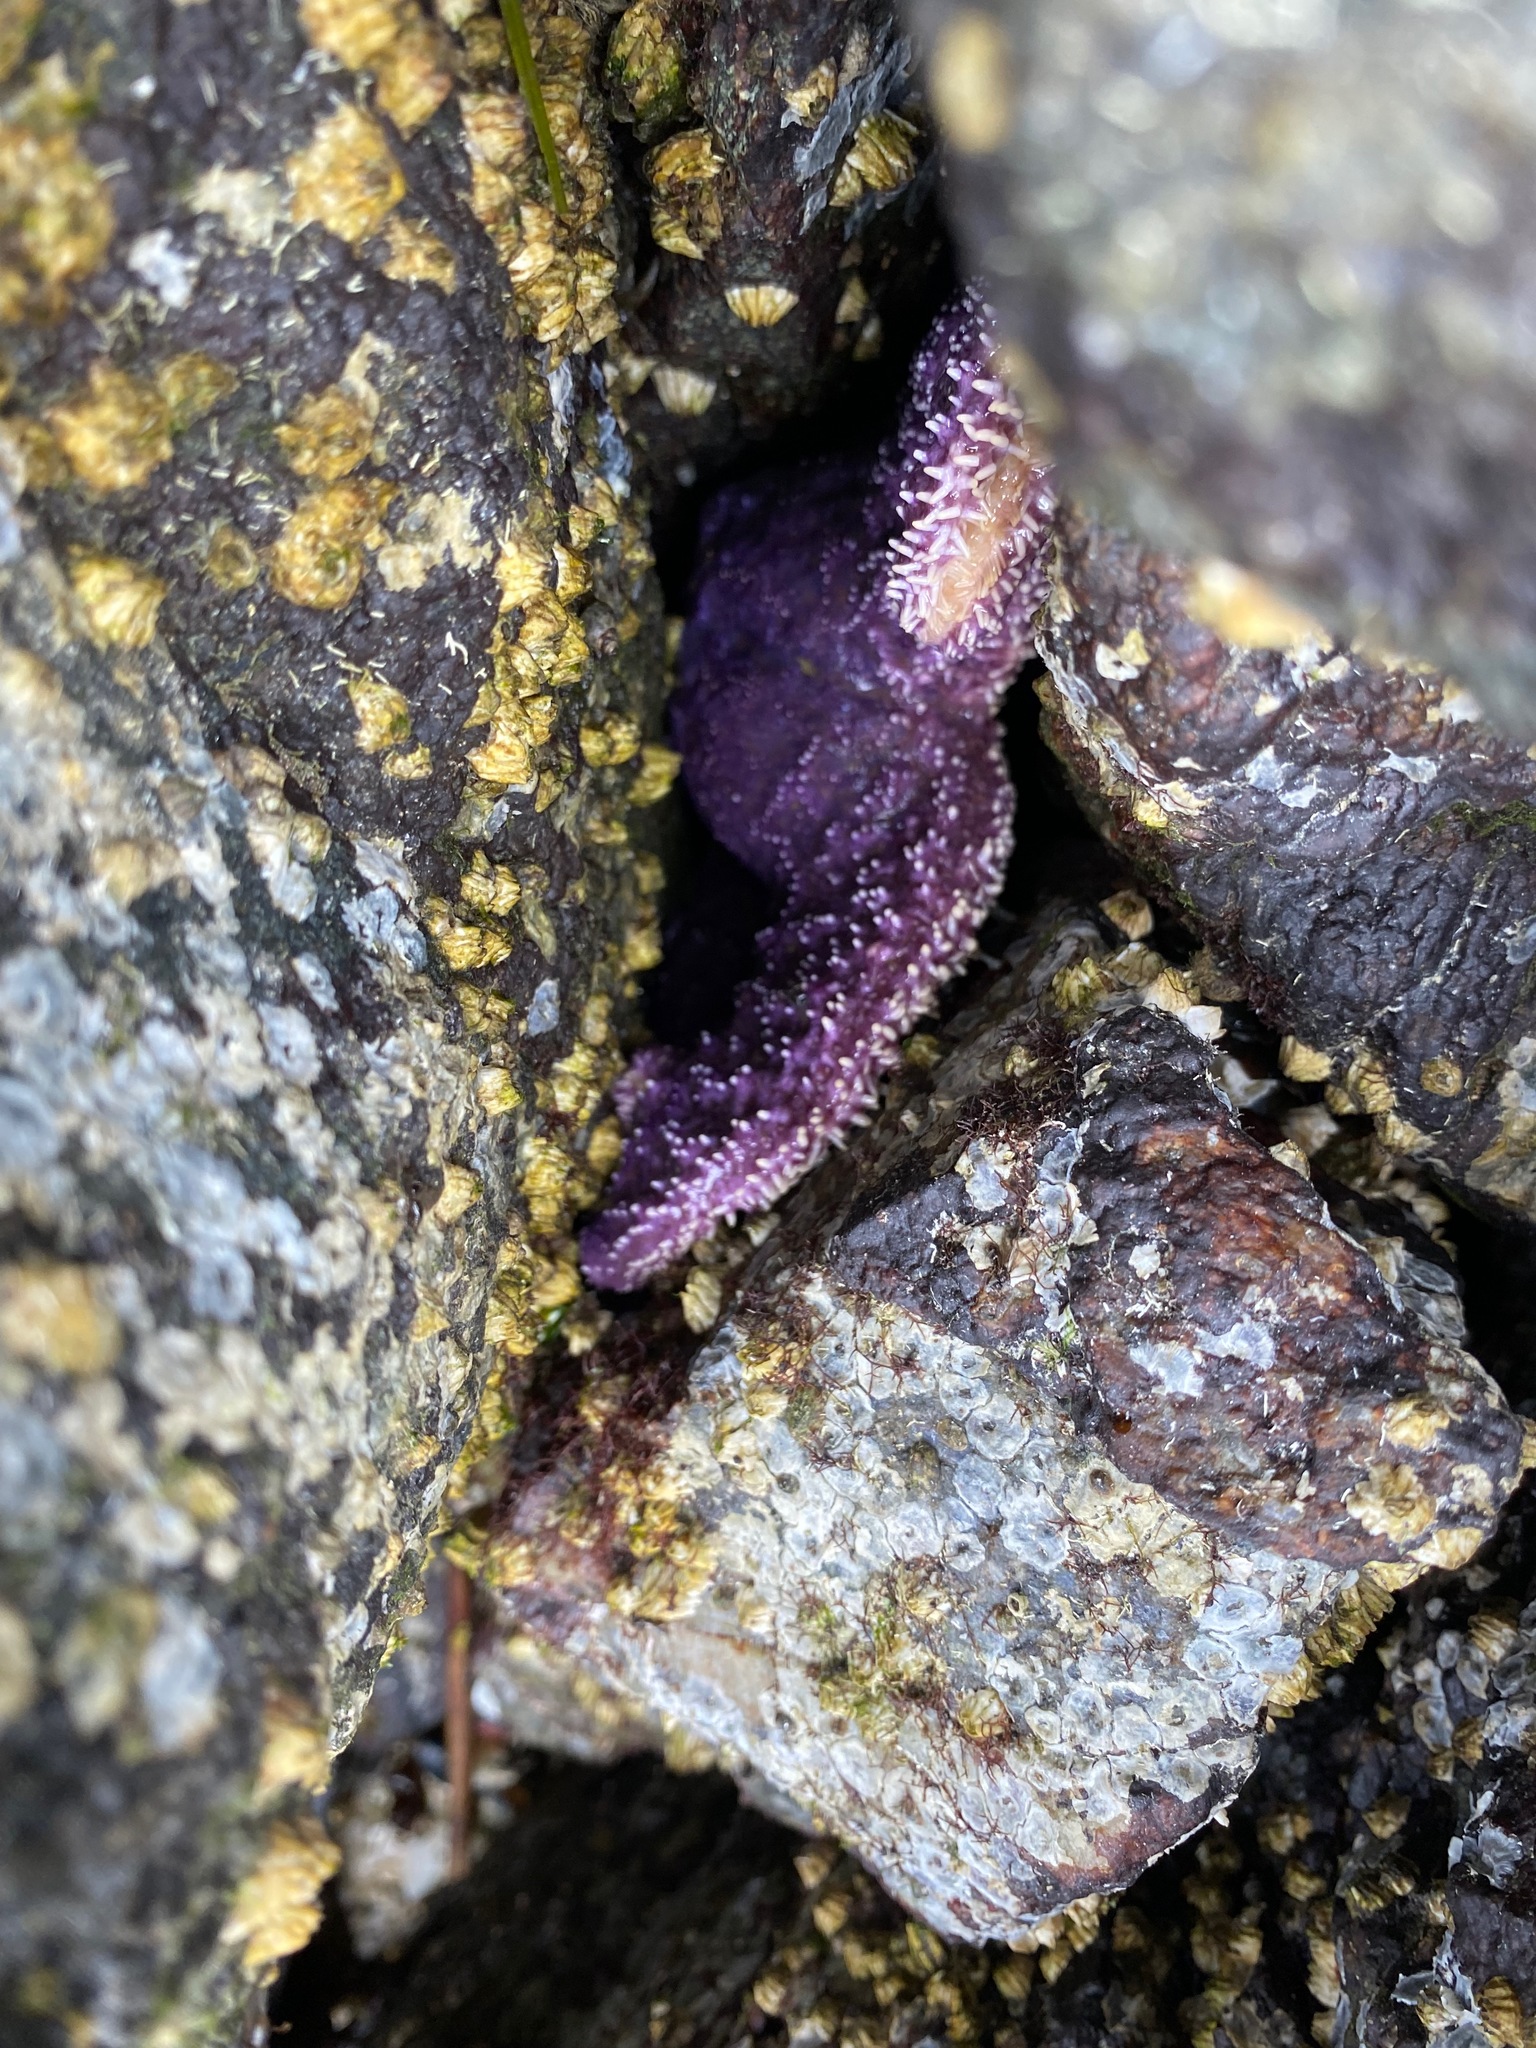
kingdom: Animalia
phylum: Echinodermata
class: Asteroidea
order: Forcipulatida
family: Asteriidae
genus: Pisaster
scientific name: Pisaster ochraceus
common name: Ochre stars
